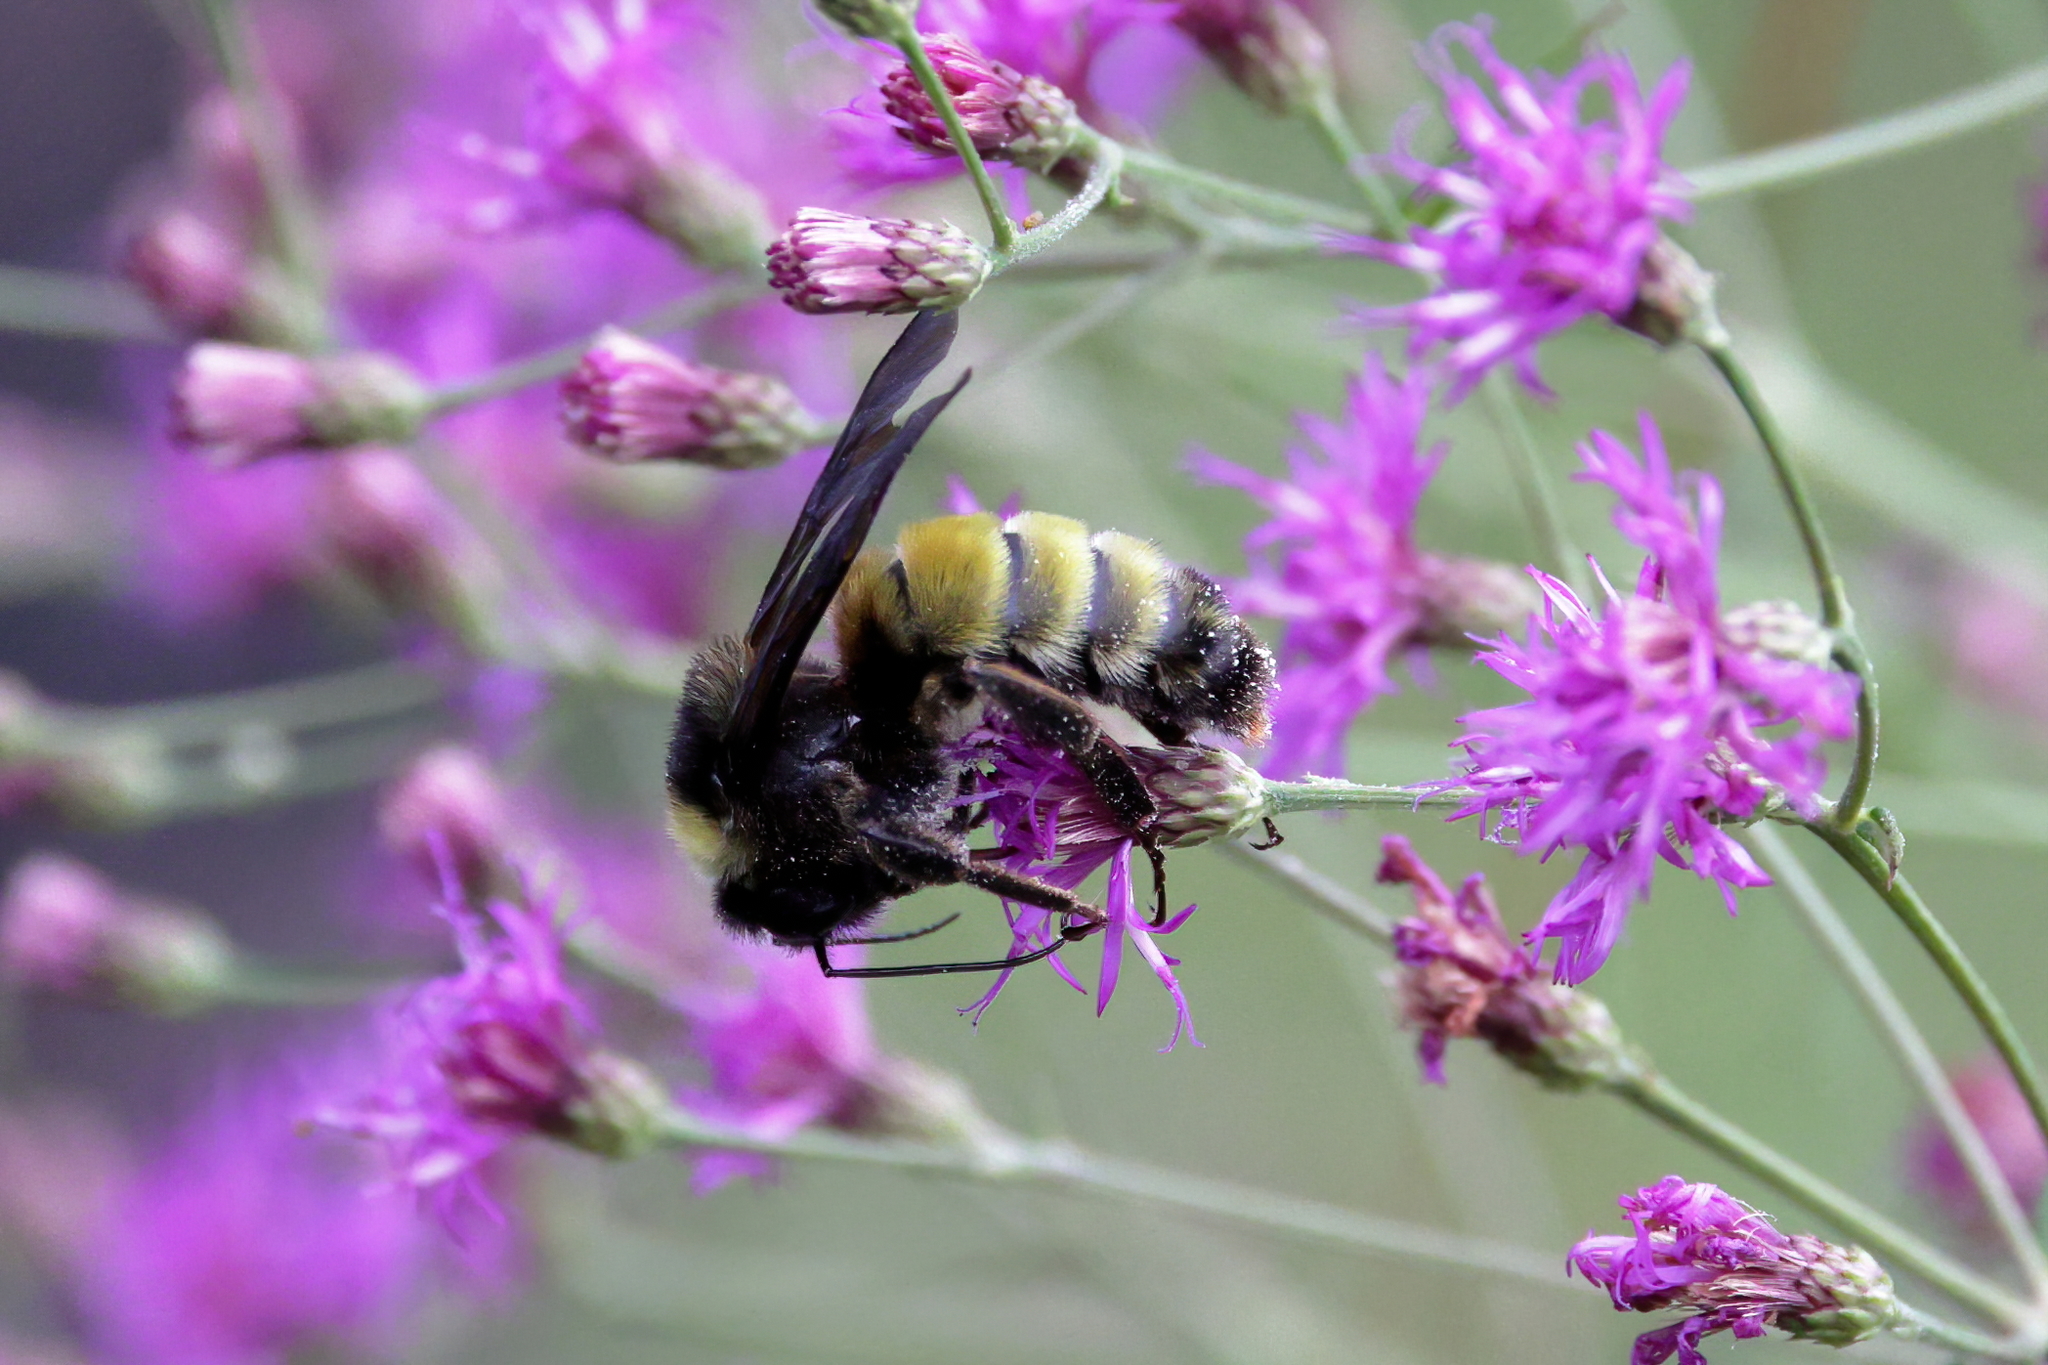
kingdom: Animalia
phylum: Arthropoda
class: Insecta
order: Hymenoptera
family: Apidae
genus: Bombus
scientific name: Bombus pensylvanicus
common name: Bumble bee
